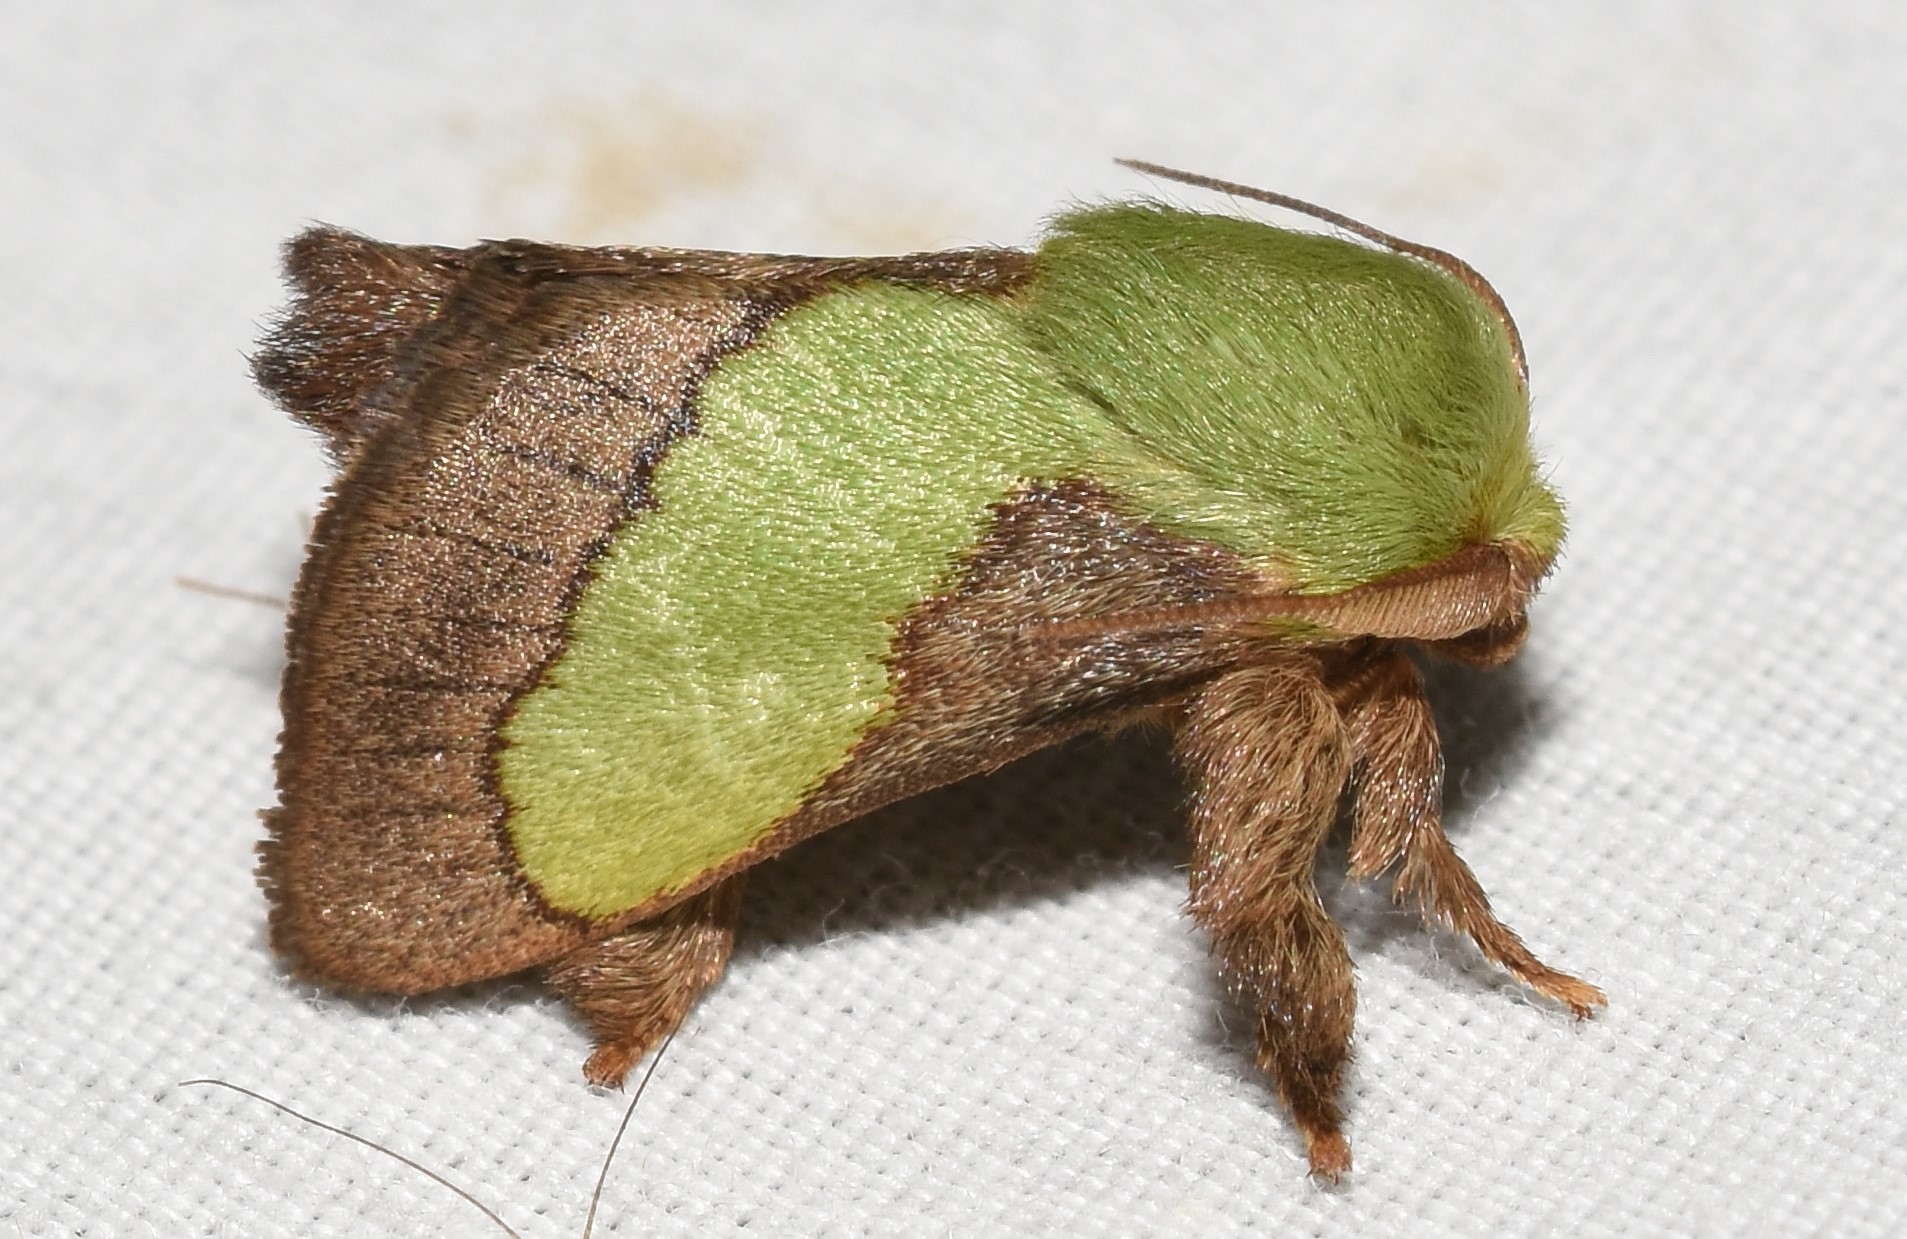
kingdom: Animalia
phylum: Arthropoda
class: Insecta
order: Lepidoptera
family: Limacodidae
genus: Parasa
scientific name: Parasa chloris
